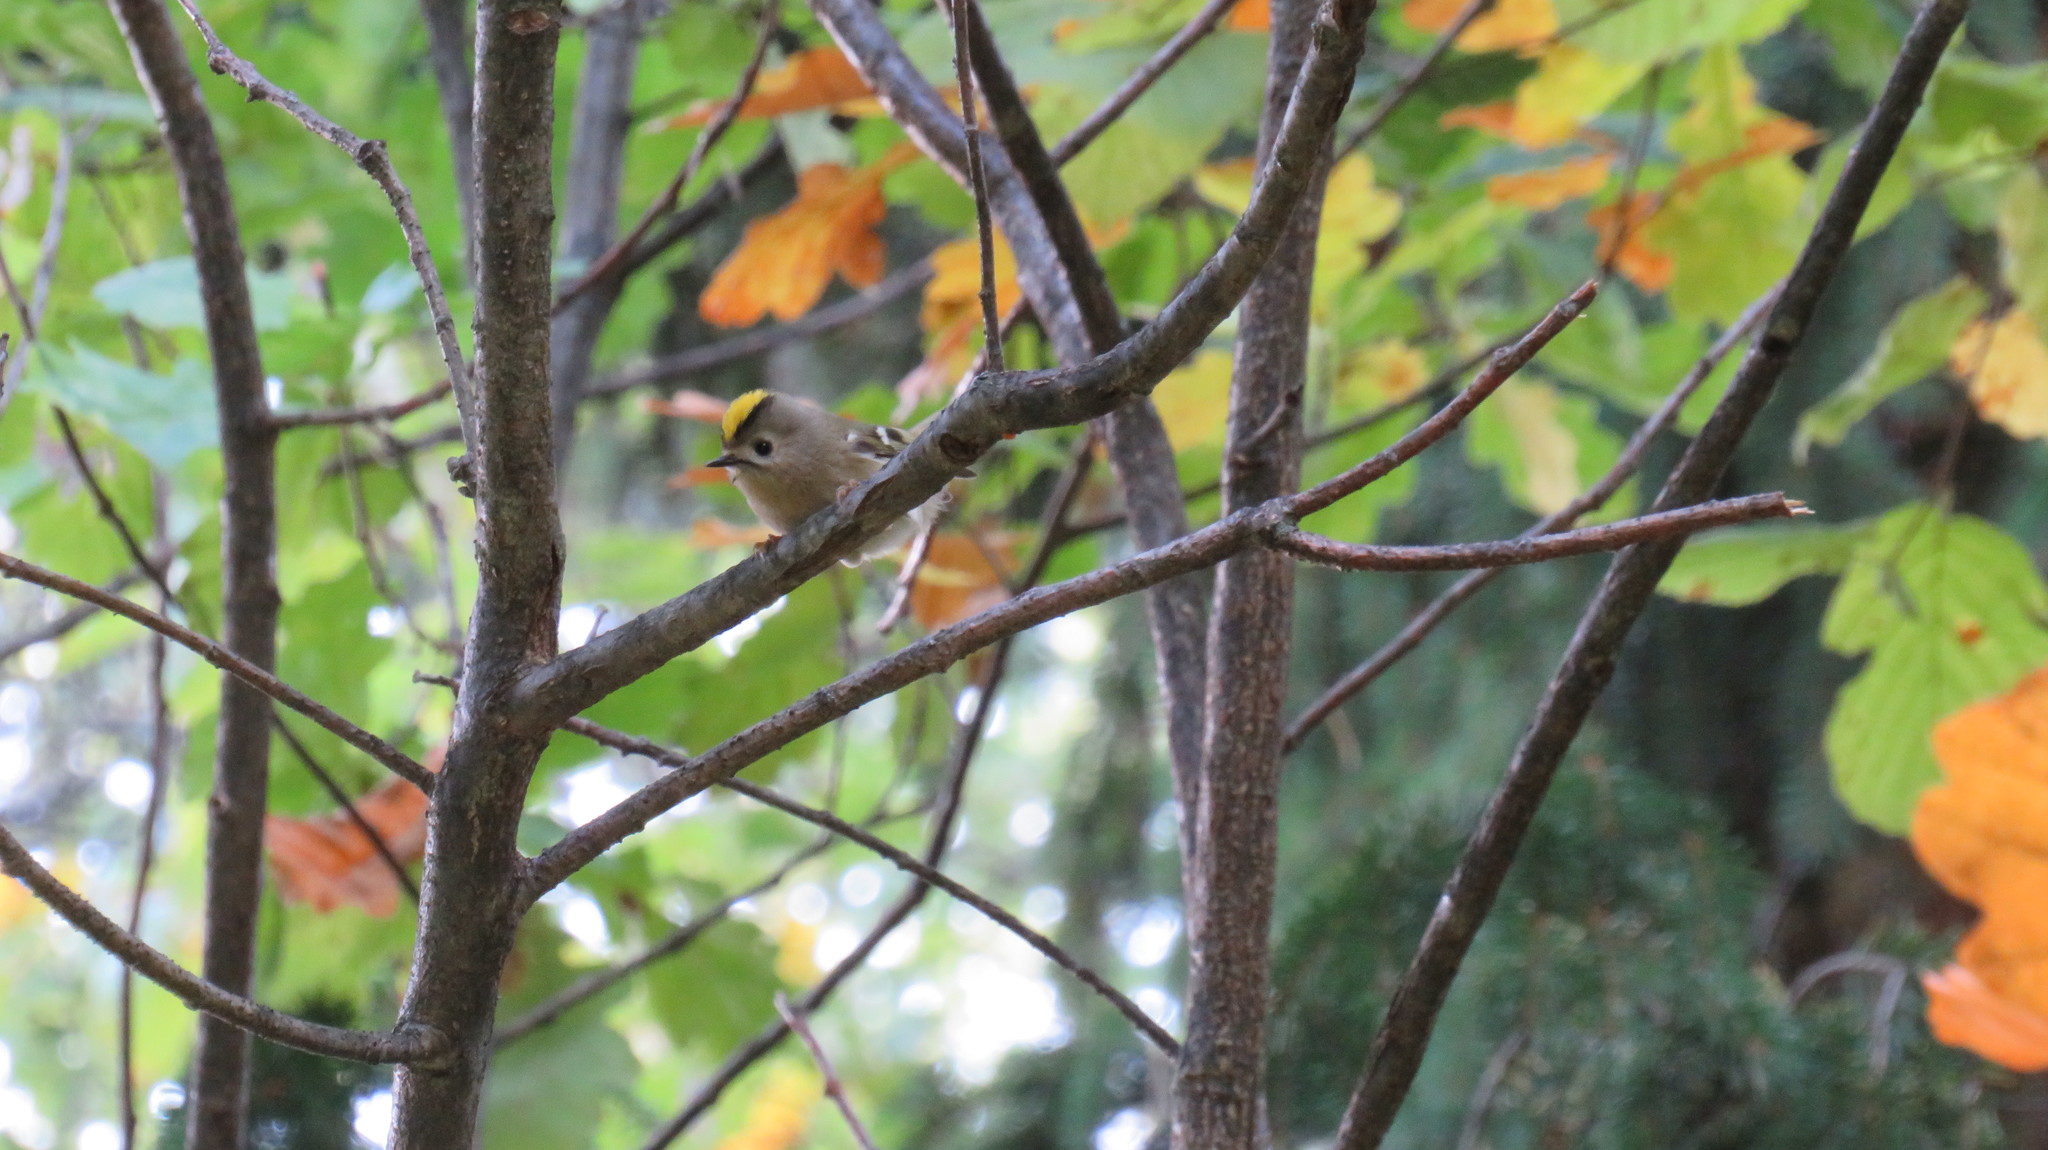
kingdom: Animalia
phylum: Chordata
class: Aves
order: Passeriformes
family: Regulidae
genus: Regulus
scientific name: Regulus regulus
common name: Goldcrest
